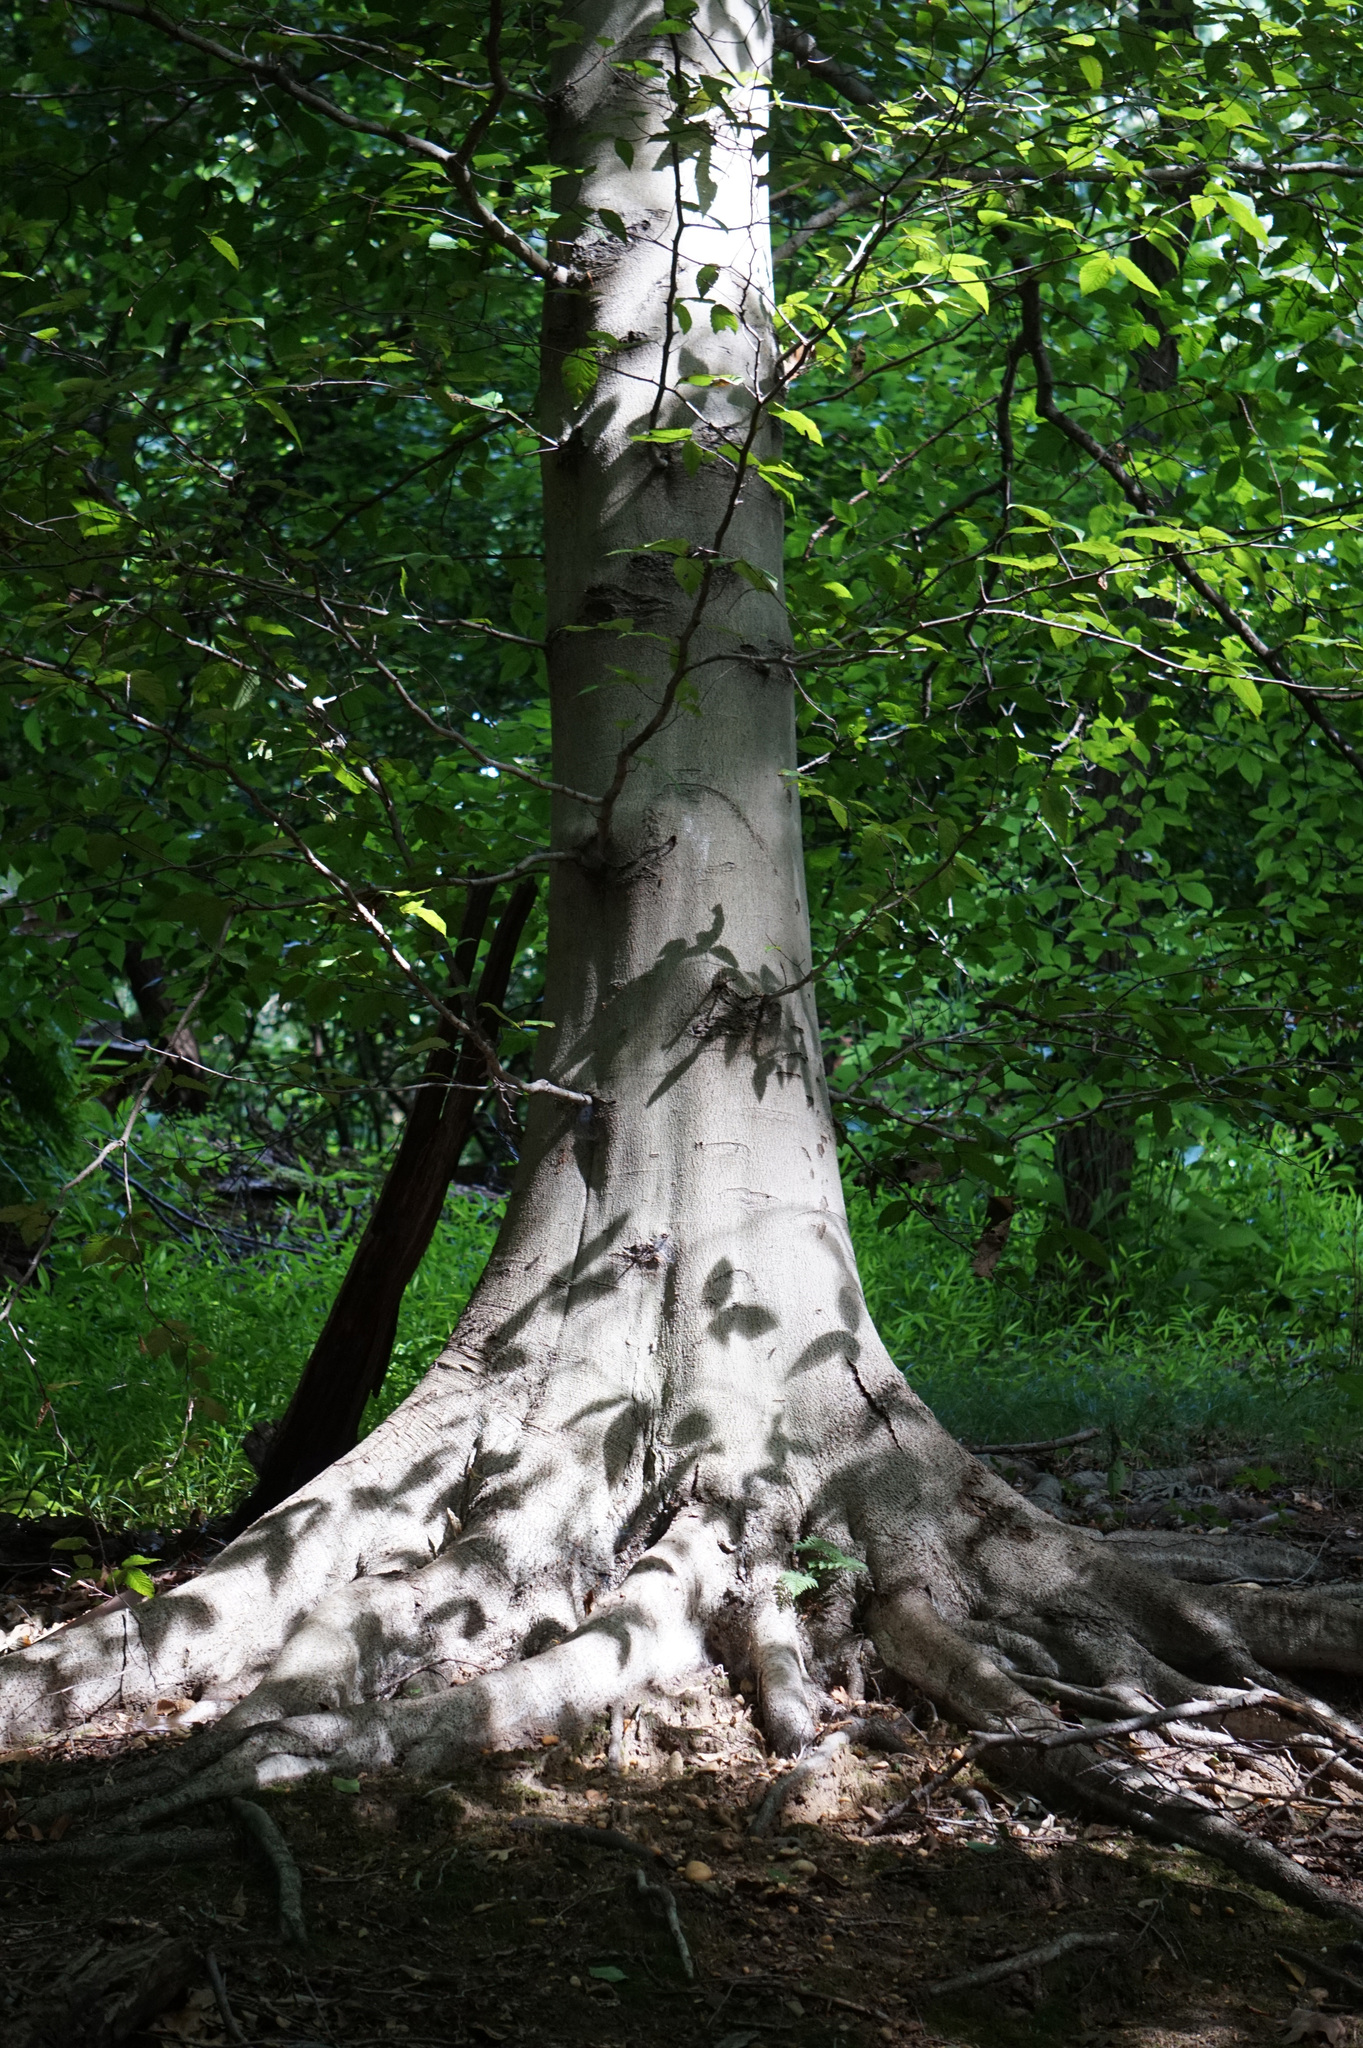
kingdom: Plantae
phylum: Tracheophyta
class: Magnoliopsida
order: Fagales
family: Fagaceae
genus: Fagus
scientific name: Fagus grandifolia
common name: American beech
